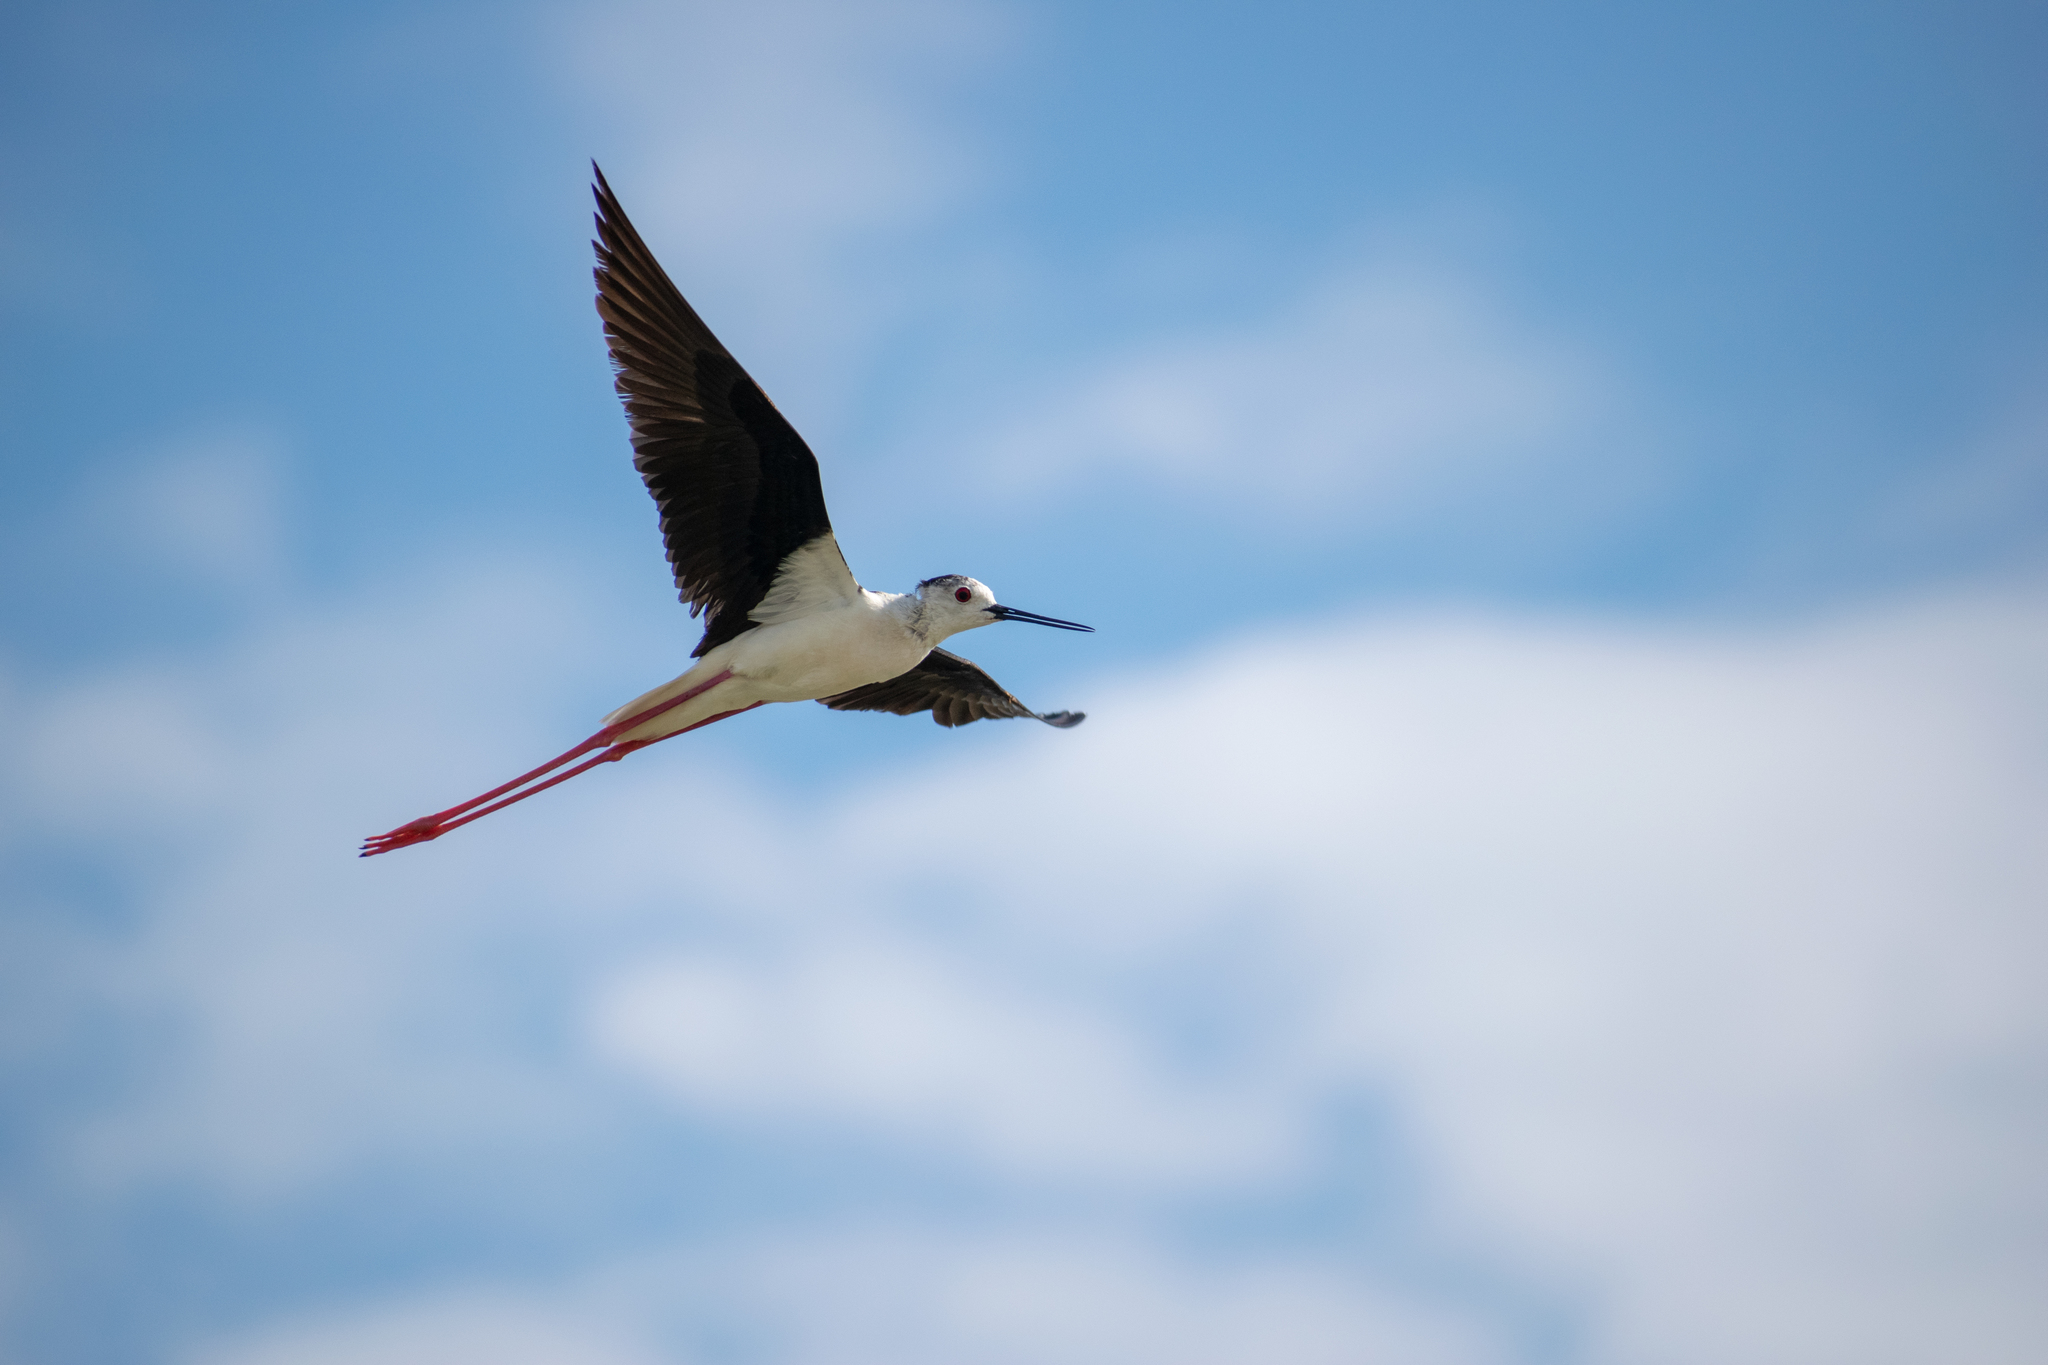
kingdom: Animalia
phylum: Chordata
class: Aves
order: Charadriiformes
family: Recurvirostridae
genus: Himantopus
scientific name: Himantopus himantopus
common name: Black-winged stilt
